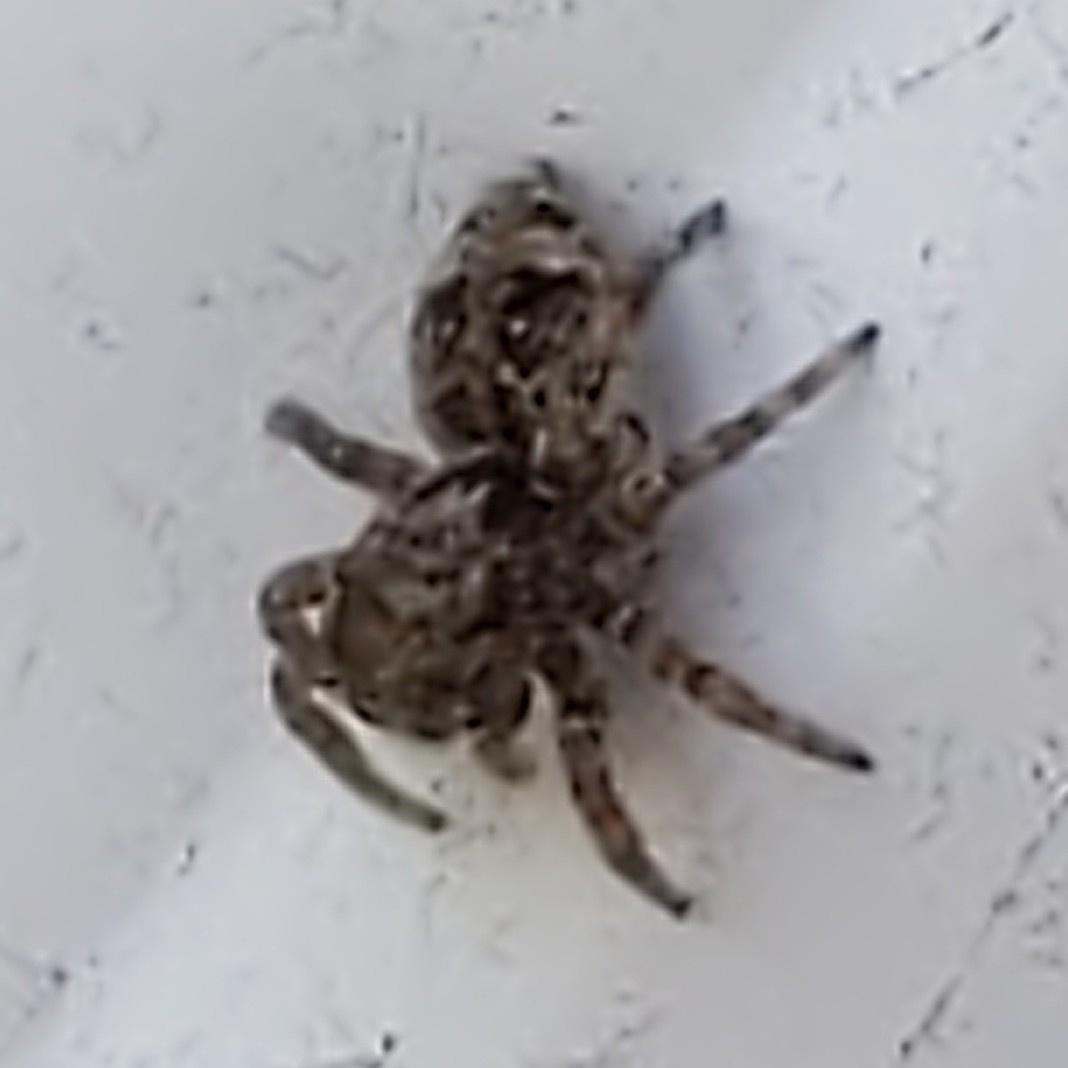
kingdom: Animalia
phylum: Arthropoda
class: Arachnida
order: Araneae
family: Salticidae
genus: Attulus
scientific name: Attulus fasciger
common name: Asiatic wall jumping spider
